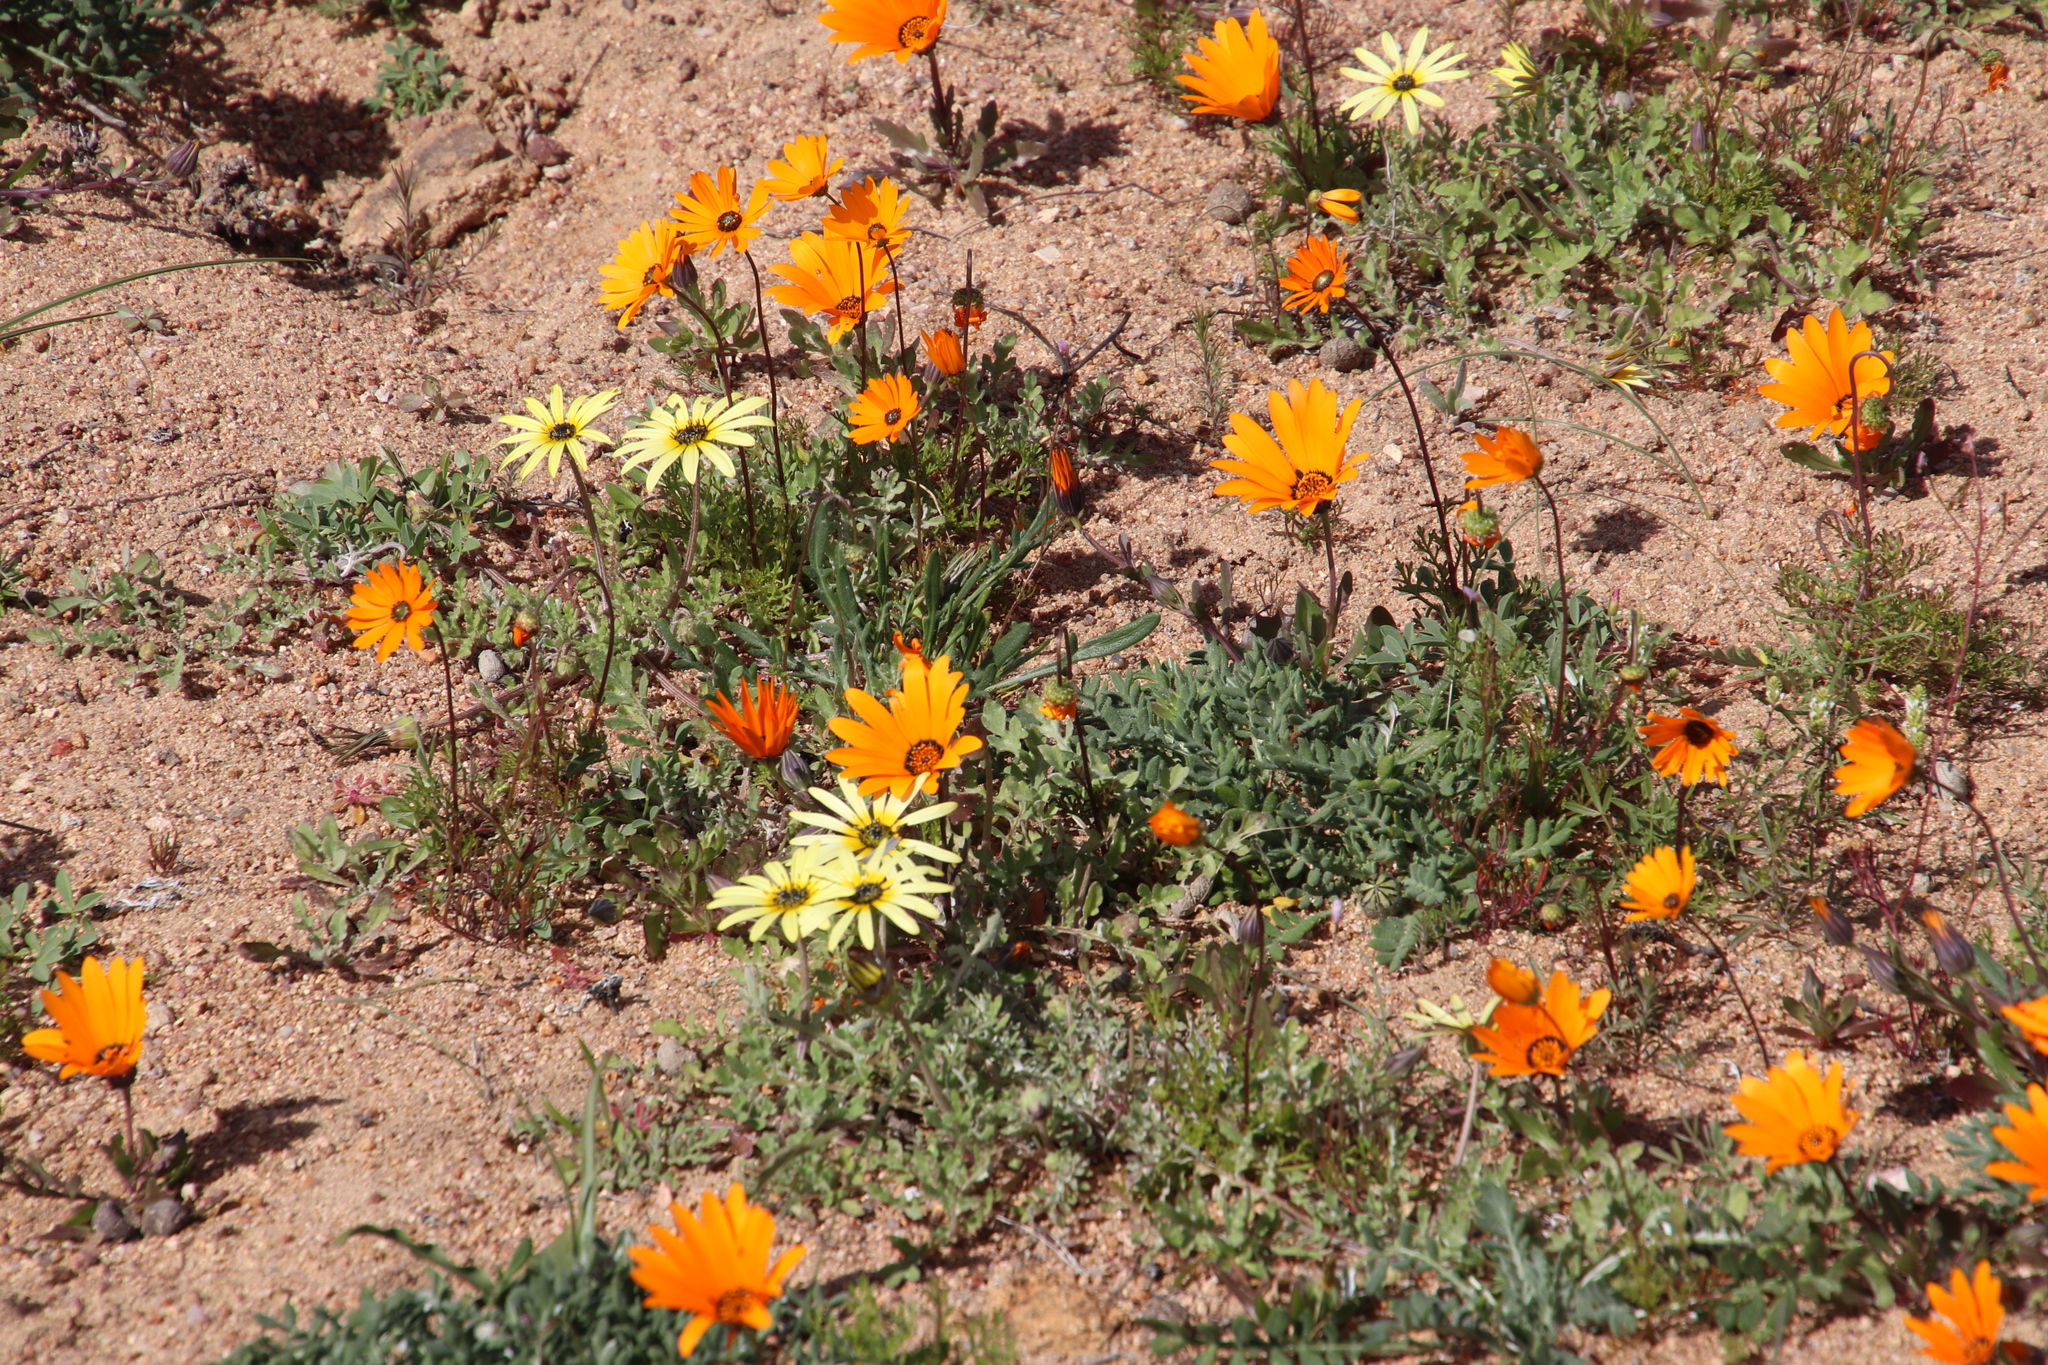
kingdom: Plantae
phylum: Tracheophyta
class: Magnoliopsida
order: Asterales
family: Asteraceae
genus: Arctotheca
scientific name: Arctotheca calendula
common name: Capeweed
